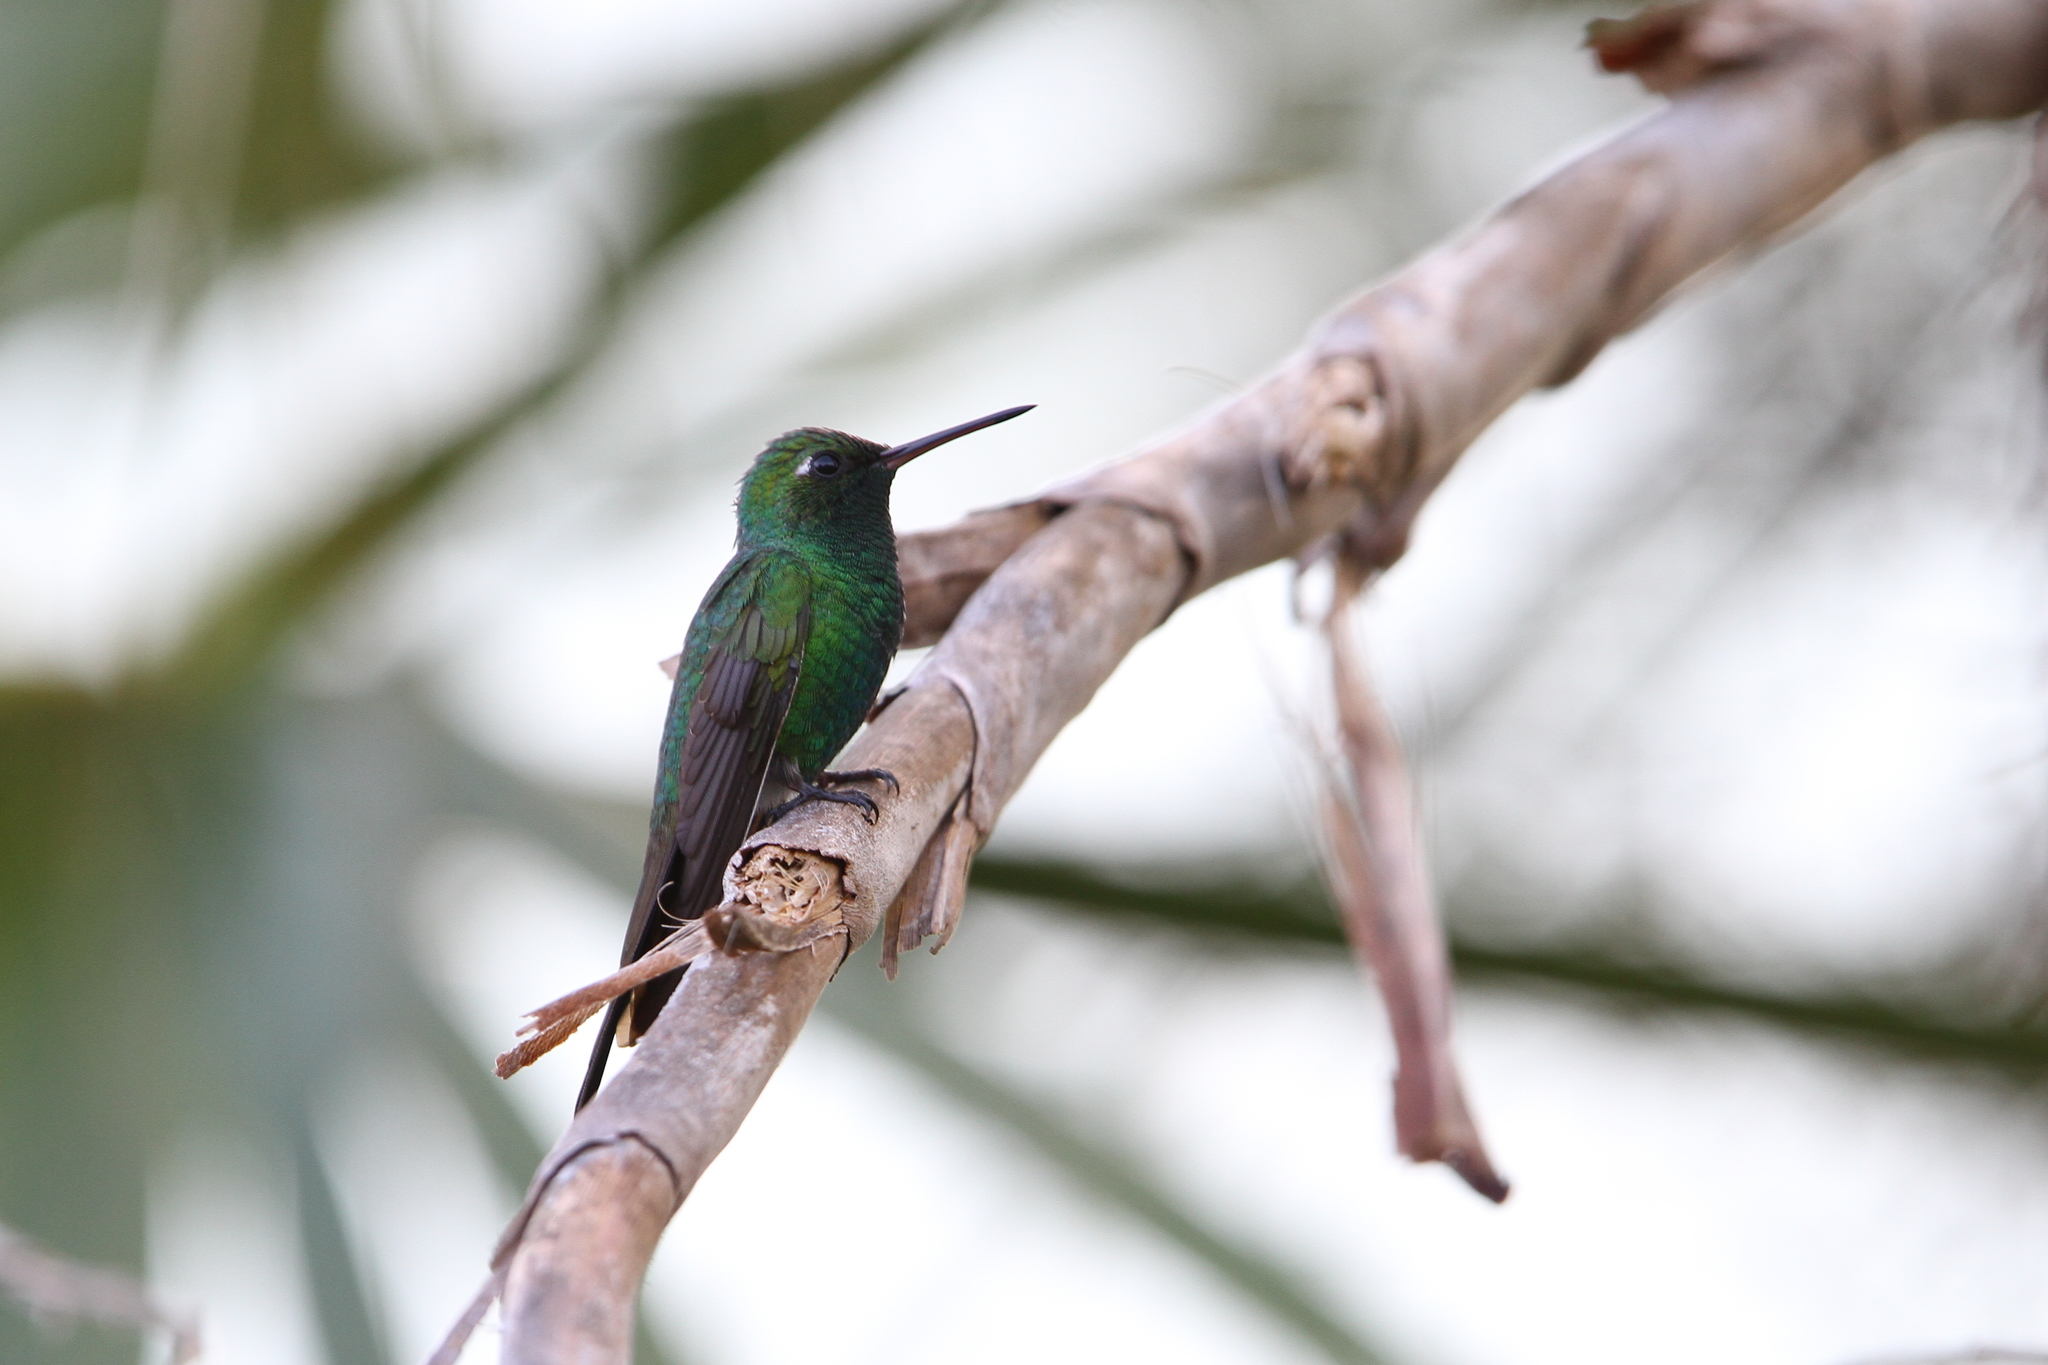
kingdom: Animalia
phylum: Chordata
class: Aves
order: Apodiformes
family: Trochilidae
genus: Riccordia
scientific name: Riccordia ricordii
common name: Cuban emerald
